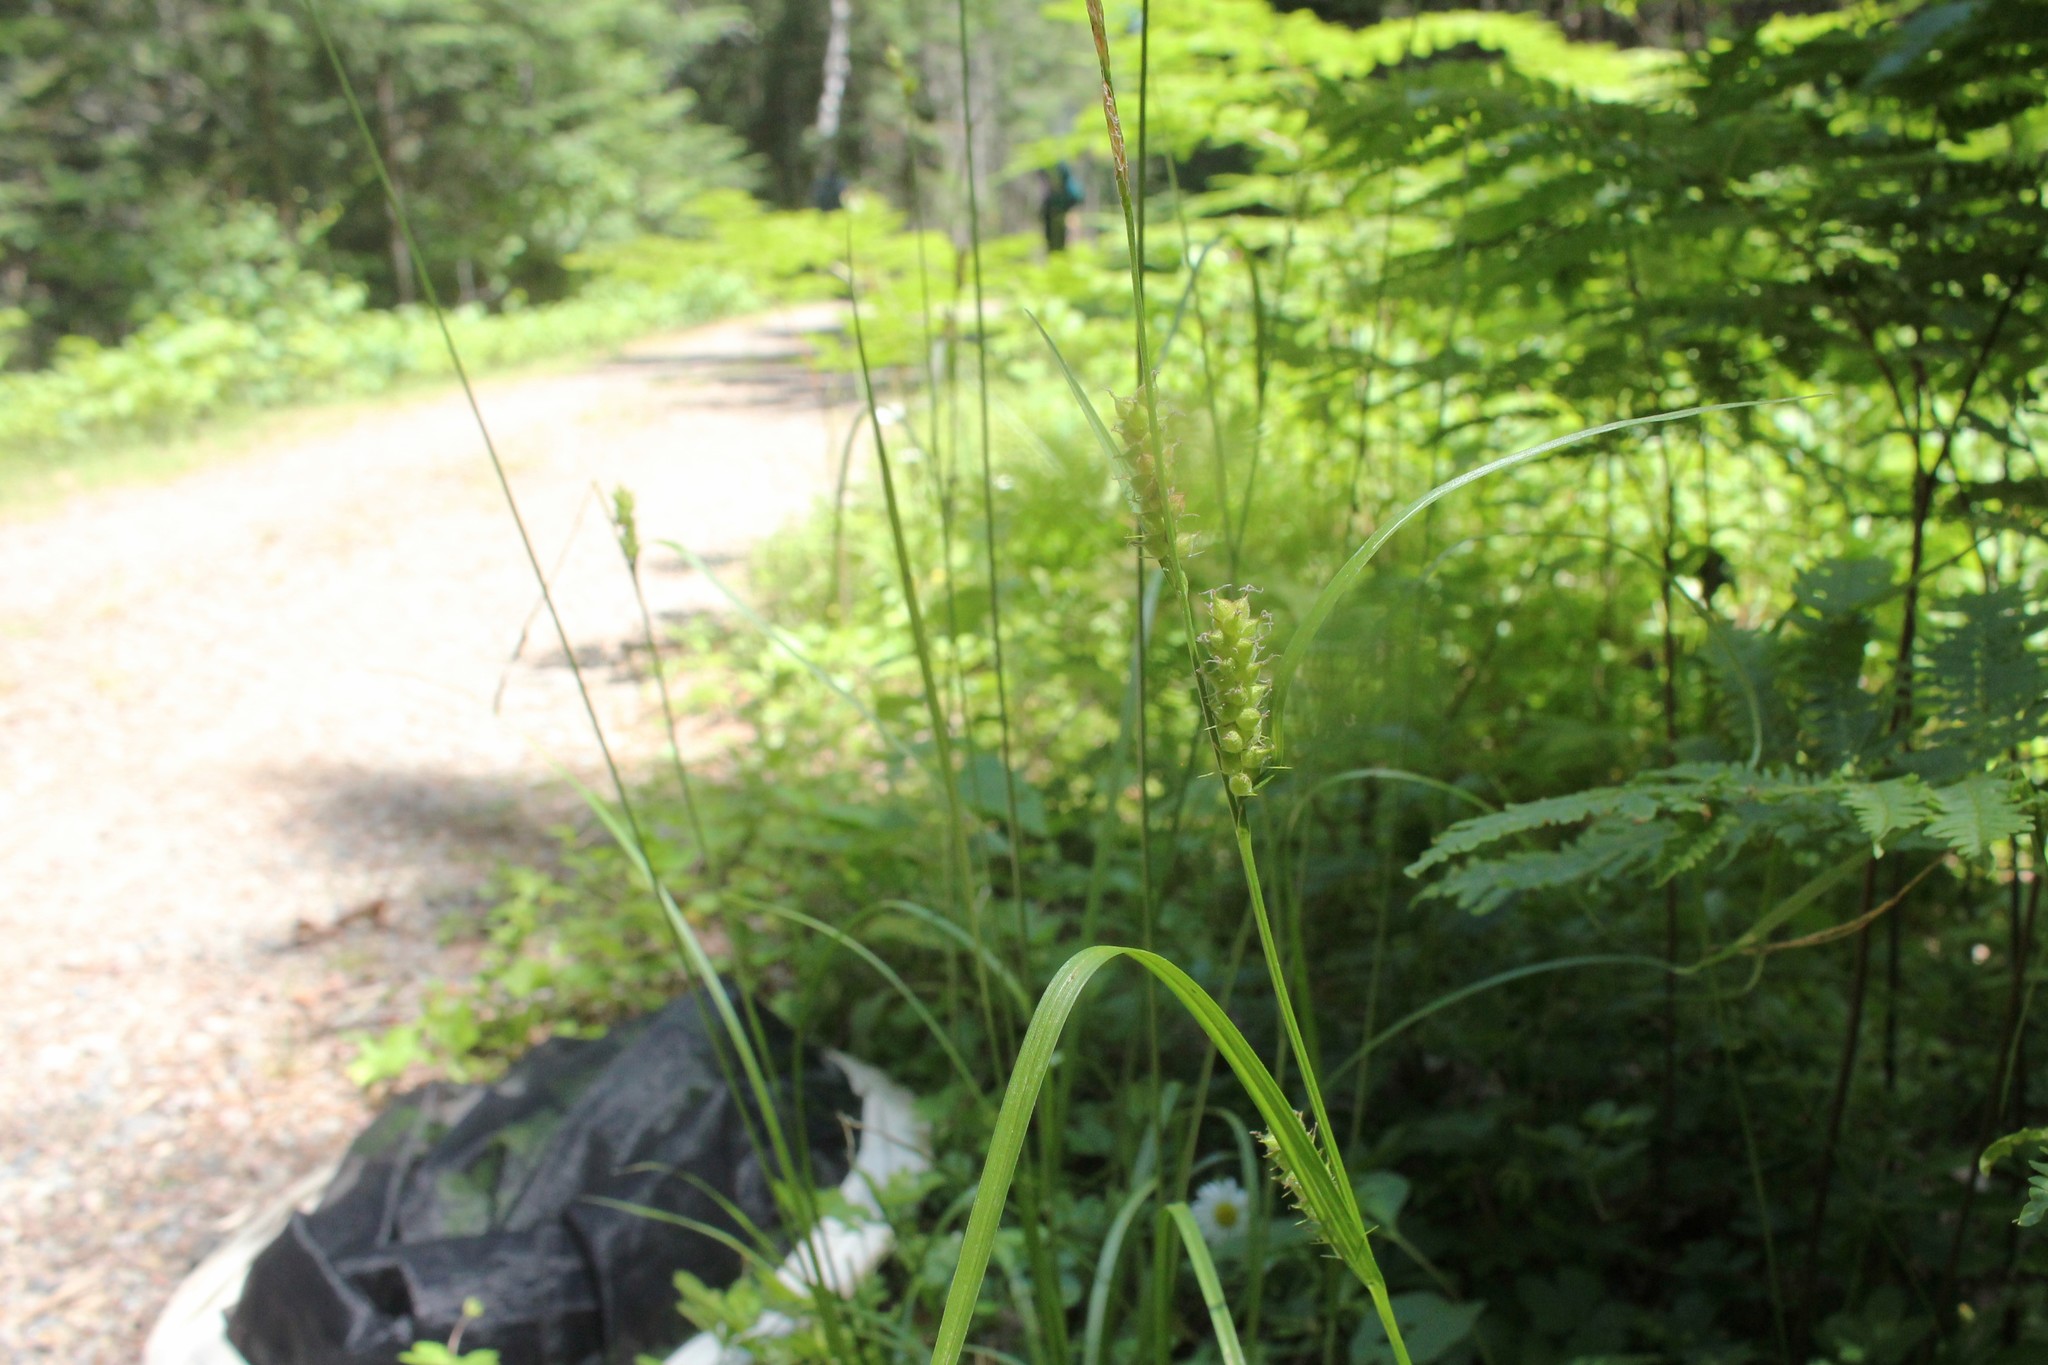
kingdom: Plantae
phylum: Tracheophyta
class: Liliopsida
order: Poales
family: Cyperaceae
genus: Carex
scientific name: Carex houghtoniana
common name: Houghton's sedge
